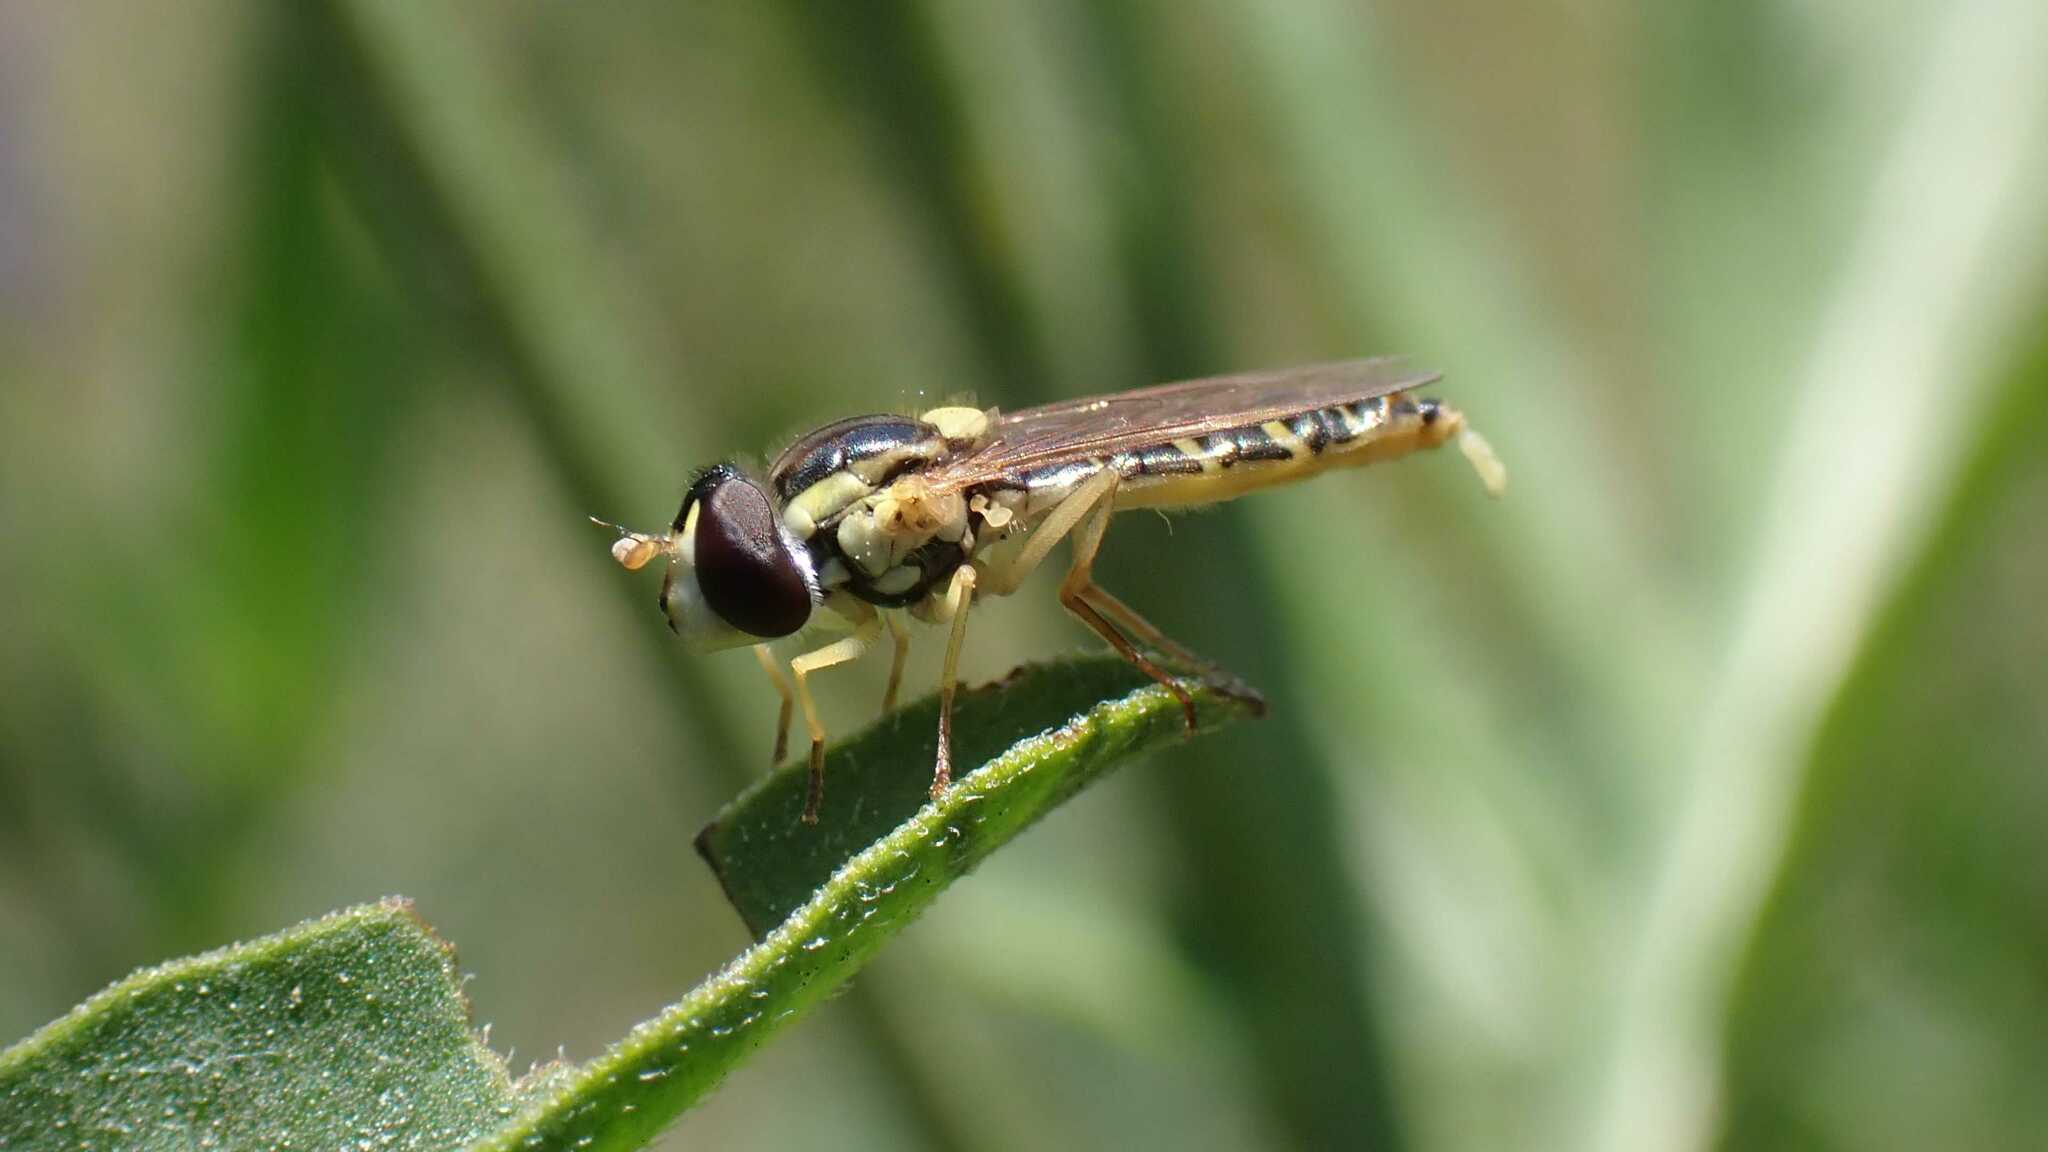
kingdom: Animalia
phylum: Arthropoda
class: Insecta
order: Diptera
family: Syrphidae
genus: Sphaerophoria
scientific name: Sphaerophoria
